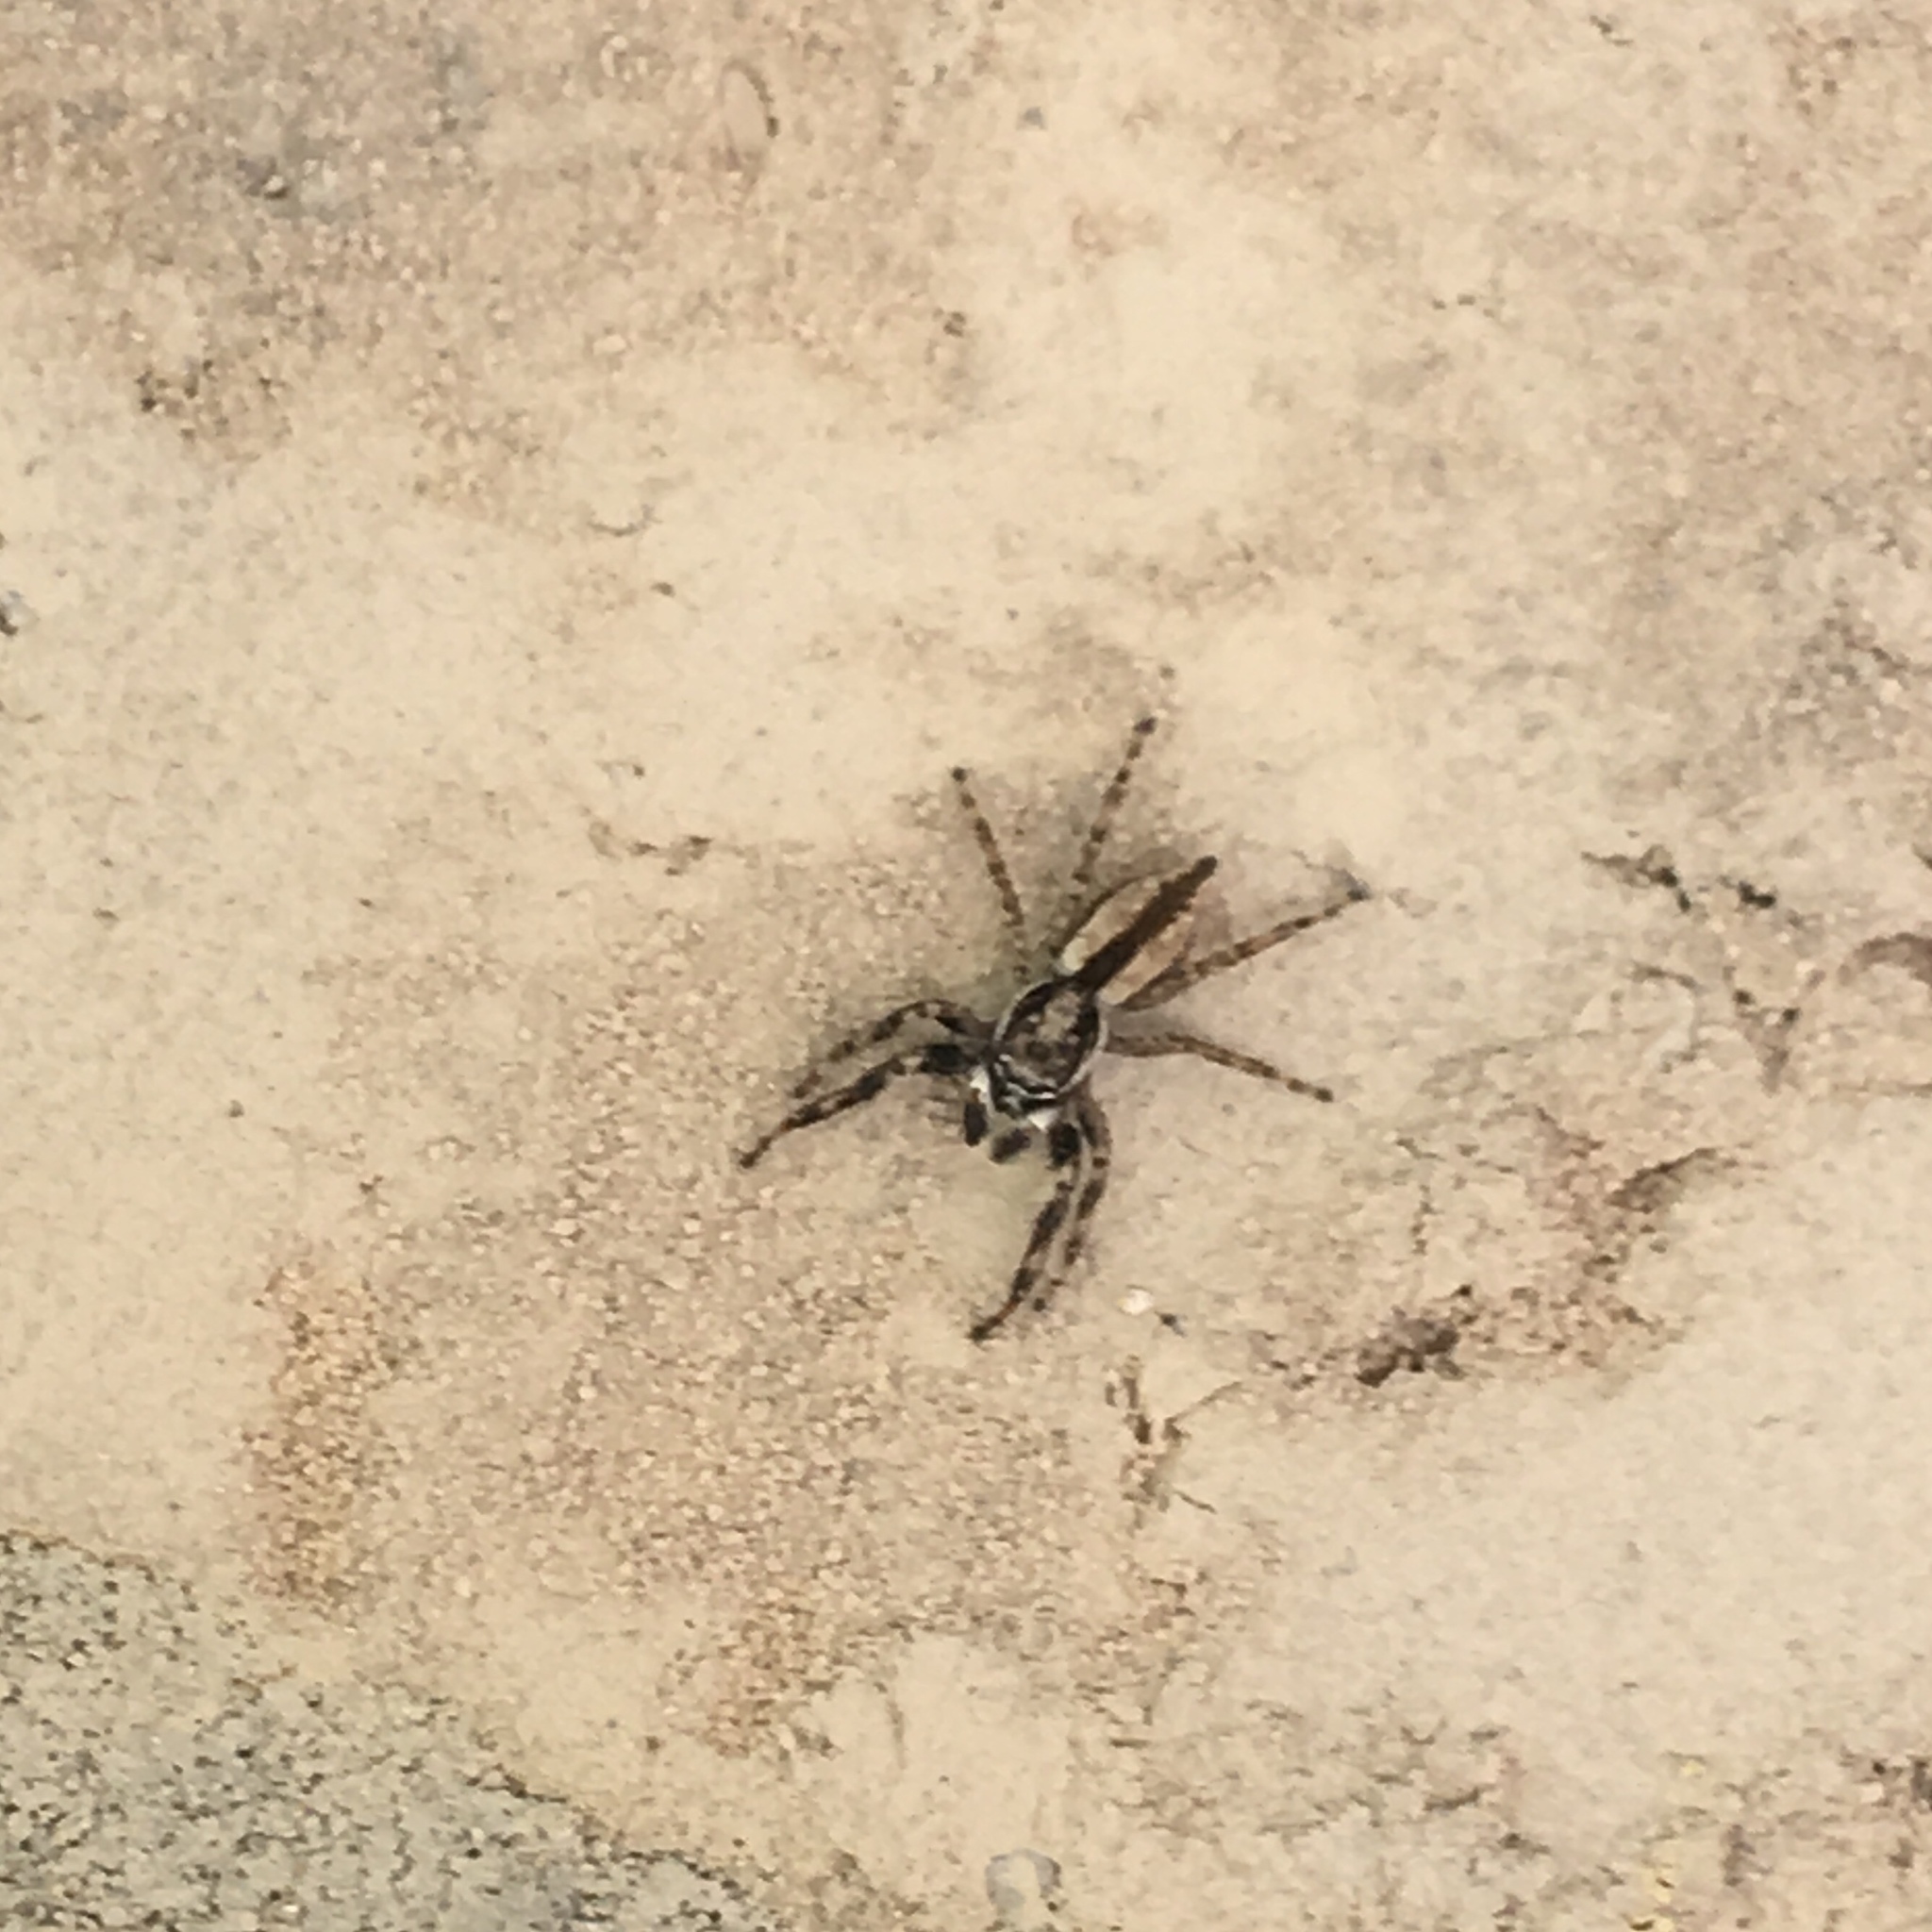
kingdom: Animalia
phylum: Arthropoda
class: Arachnida
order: Araneae
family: Salticidae
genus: Menemerus
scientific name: Menemerus bivittatus
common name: Gray wall jumper
